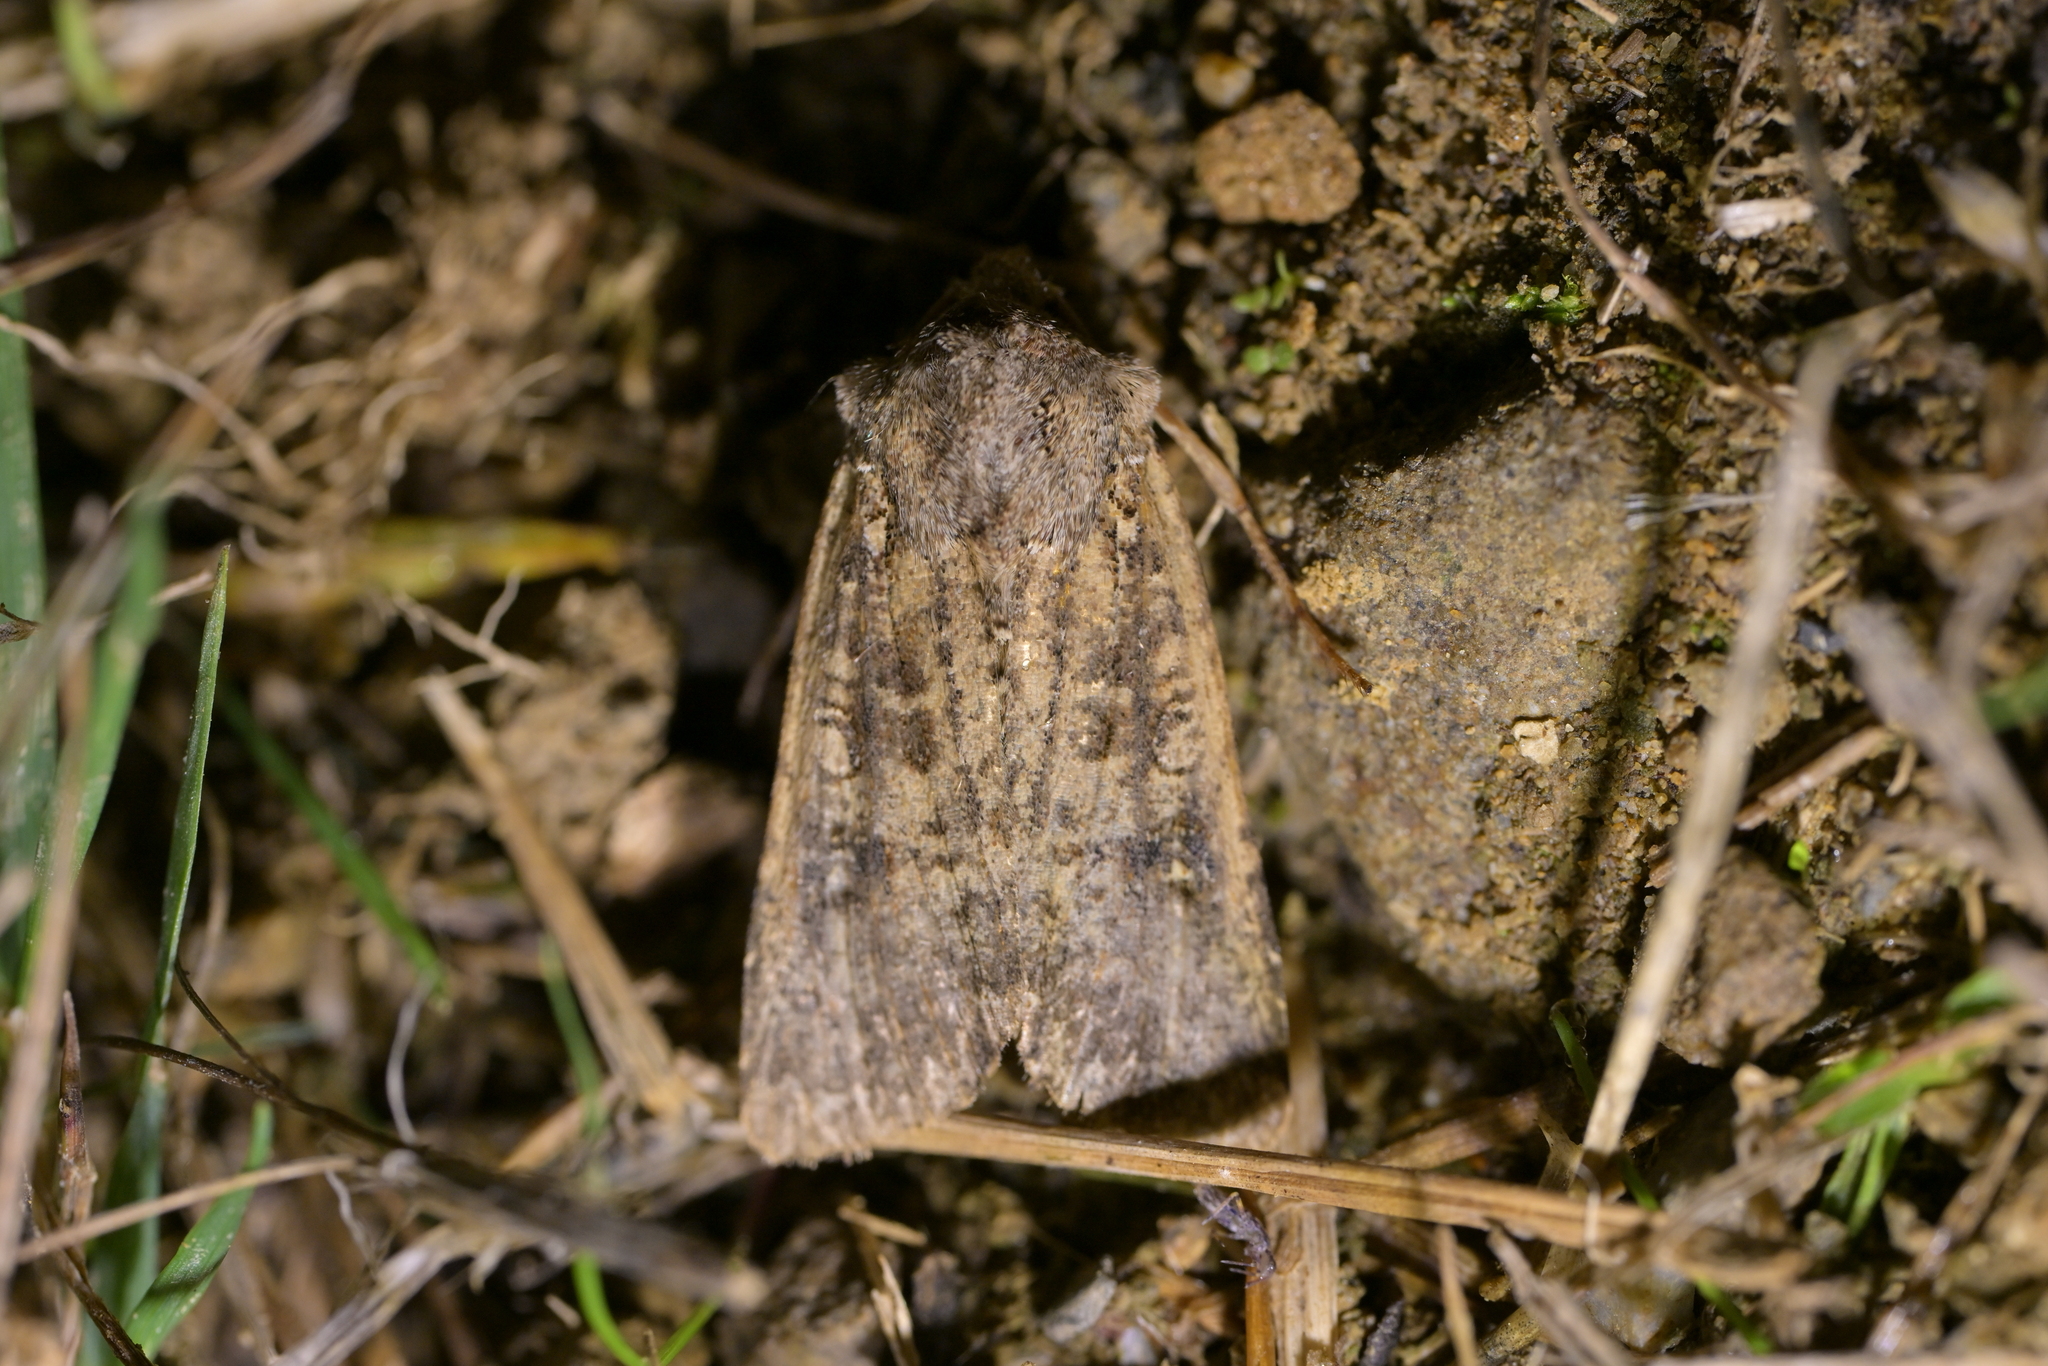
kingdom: Animalia
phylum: Arthropoda
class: Insecta
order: Lepidoptera
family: Noctuidae
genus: Ichneutica
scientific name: Ichneutica morosa
